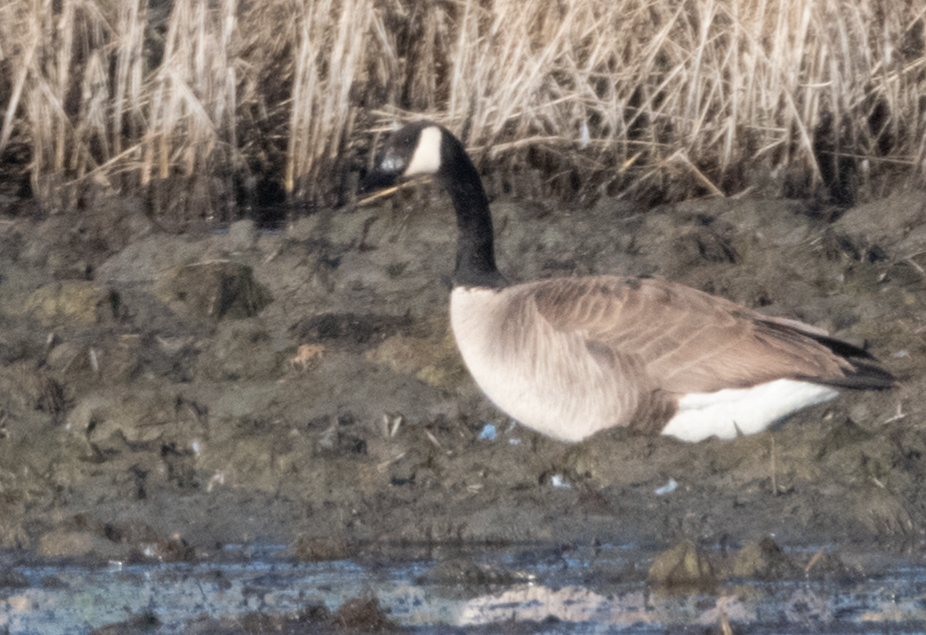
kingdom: Animalia
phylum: Chordata
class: Aves
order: Anseriformes
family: Anatidae
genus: Branta
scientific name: Branta canadensis
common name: Canada goose
